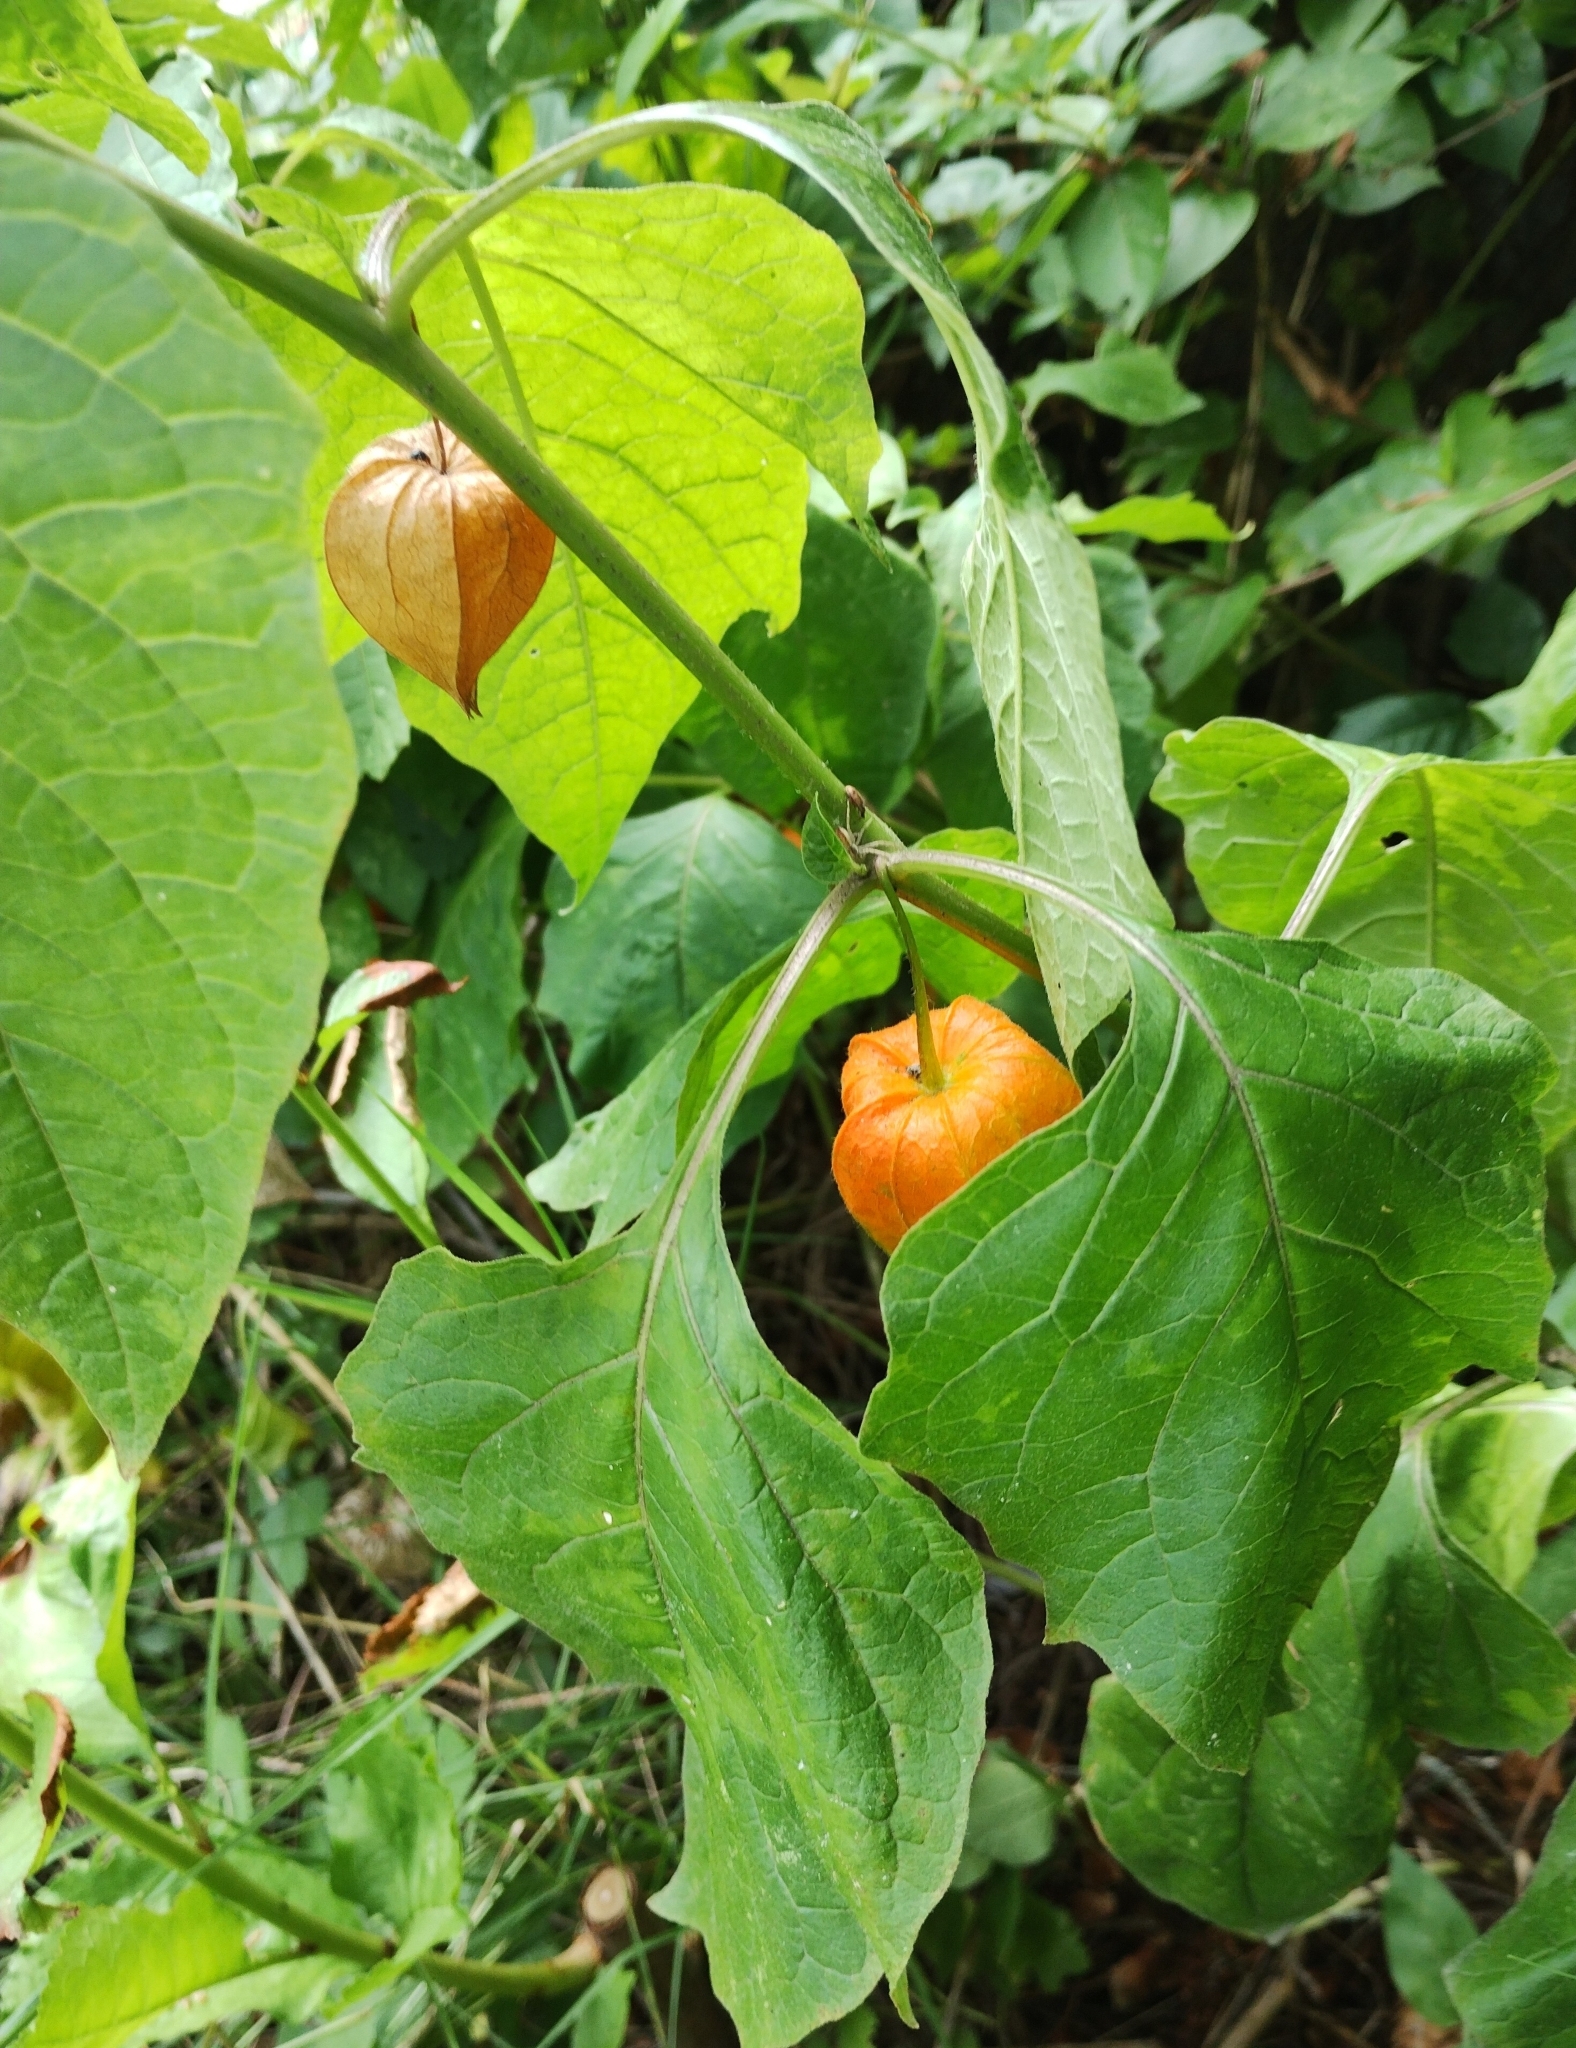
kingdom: Plantae
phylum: Tracheophyta
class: Magnoliopsida
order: Solanales
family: Solanaceae
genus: Alkekengi
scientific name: Alkekengi officinarum
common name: Japanese-lantern
